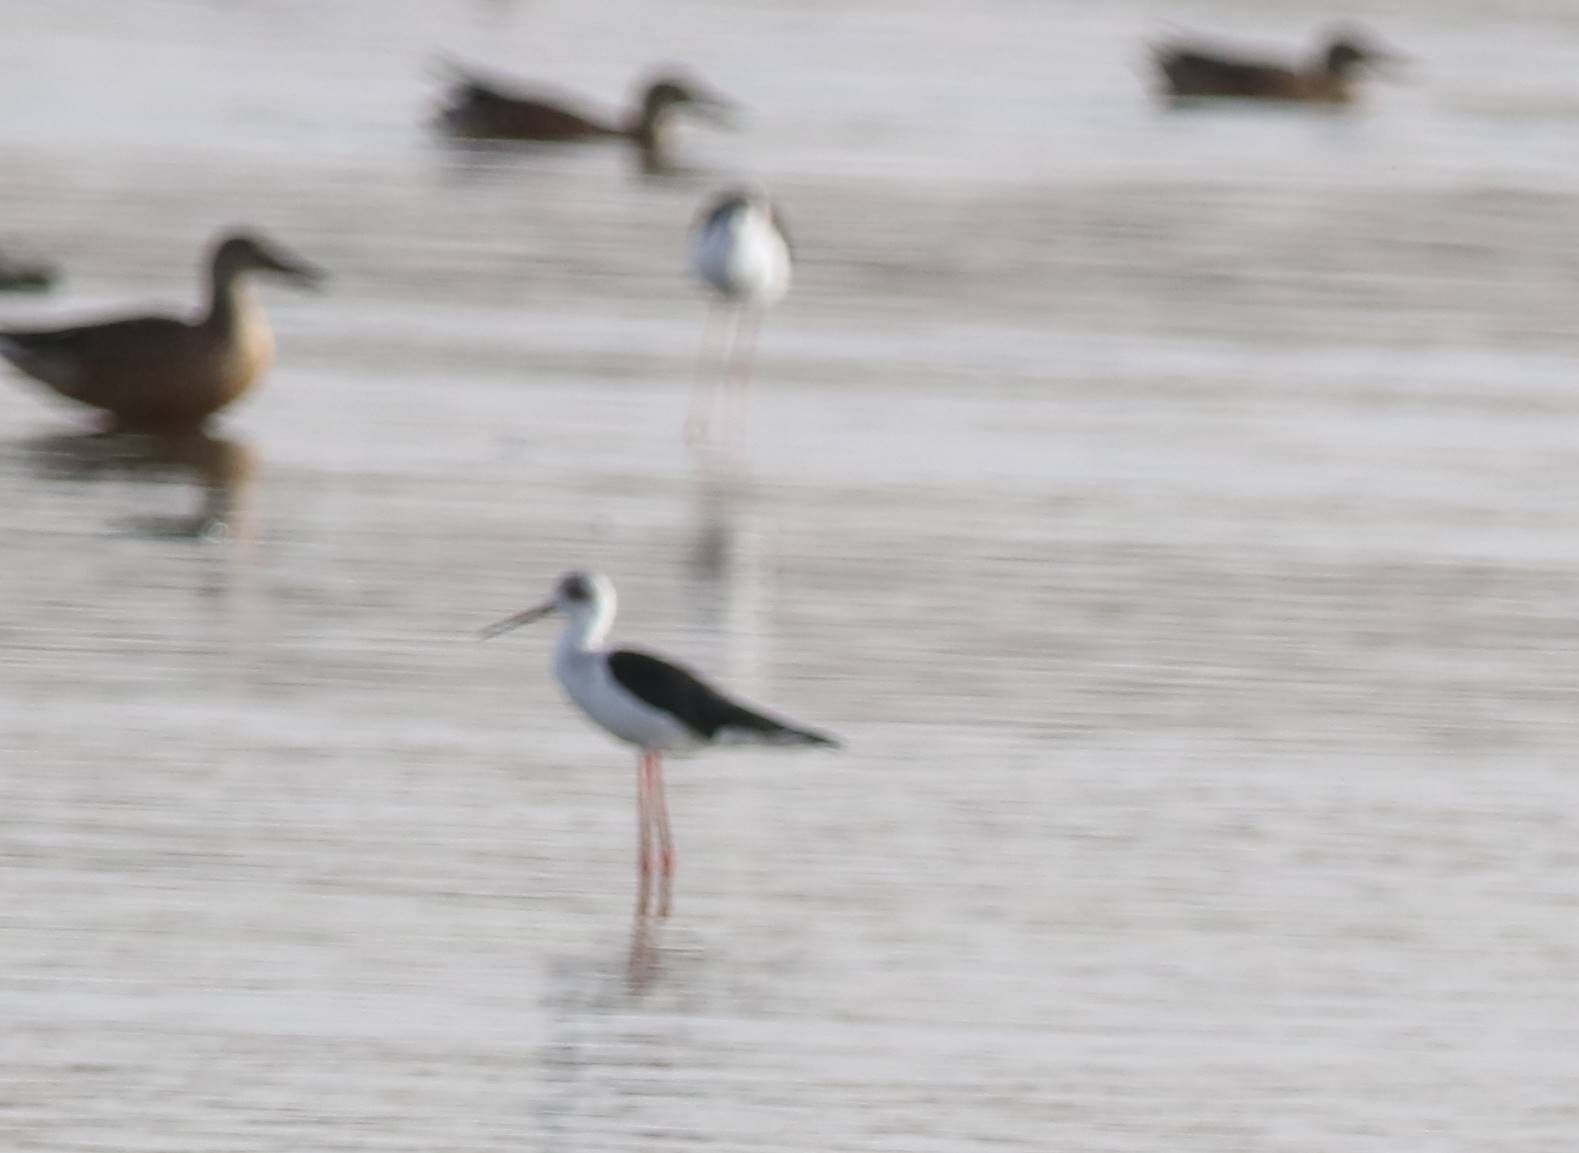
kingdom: Animalia
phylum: Chordata
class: Aves
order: Charadriiformes
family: Recurvirostridae
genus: Himantopus
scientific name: Himantopus himantopus
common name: Black-winged stilt
